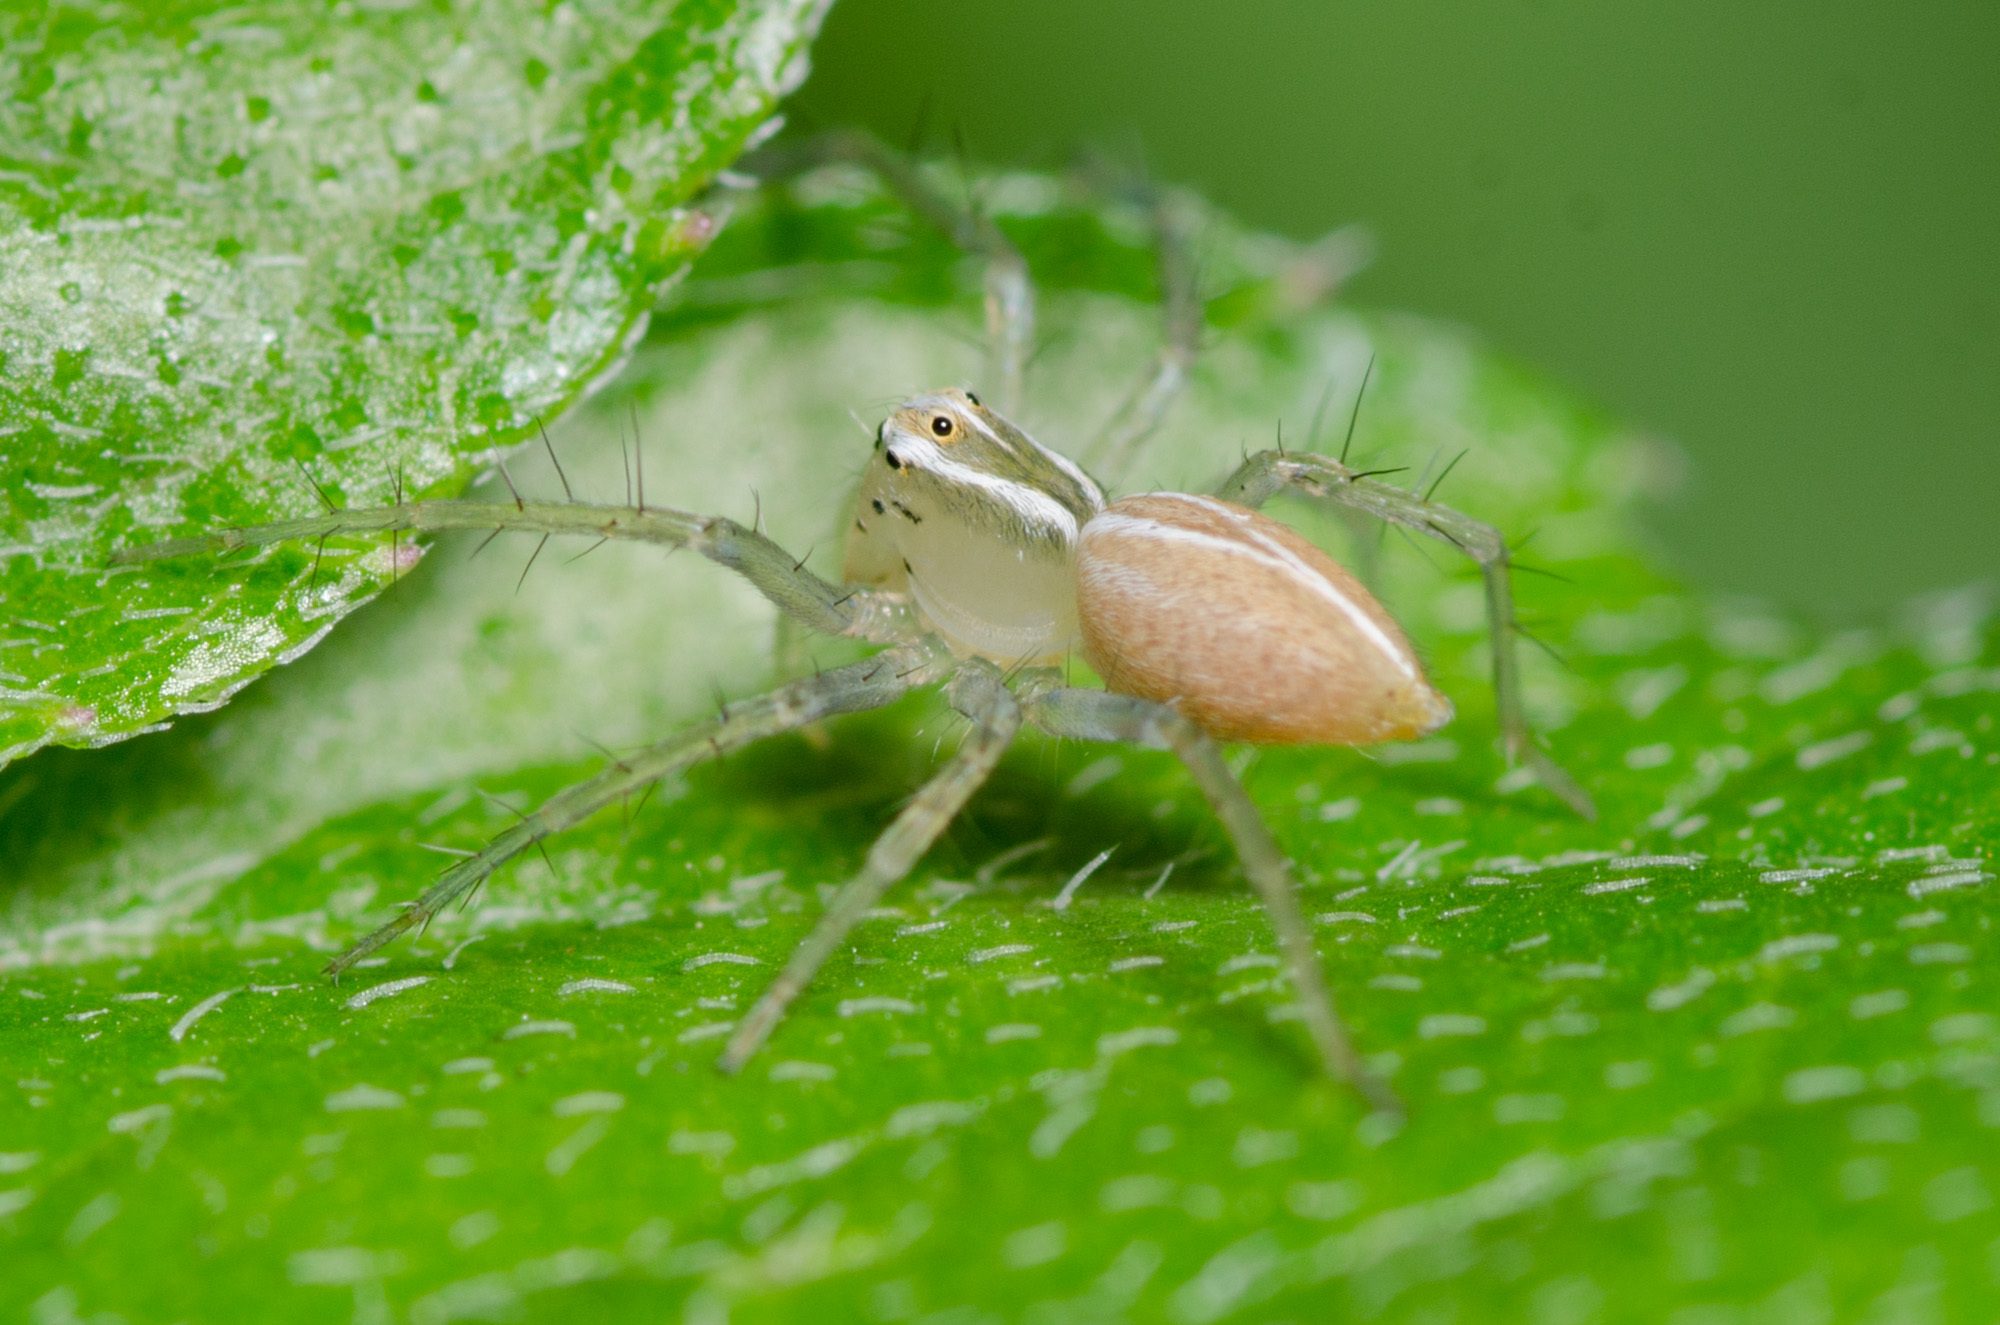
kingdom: Animalia
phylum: Arthropoda
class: Arachnida
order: Araneae
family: Oxyopidae
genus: Oxyopes
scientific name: Oxyopes salticus
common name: Lynx spiders
